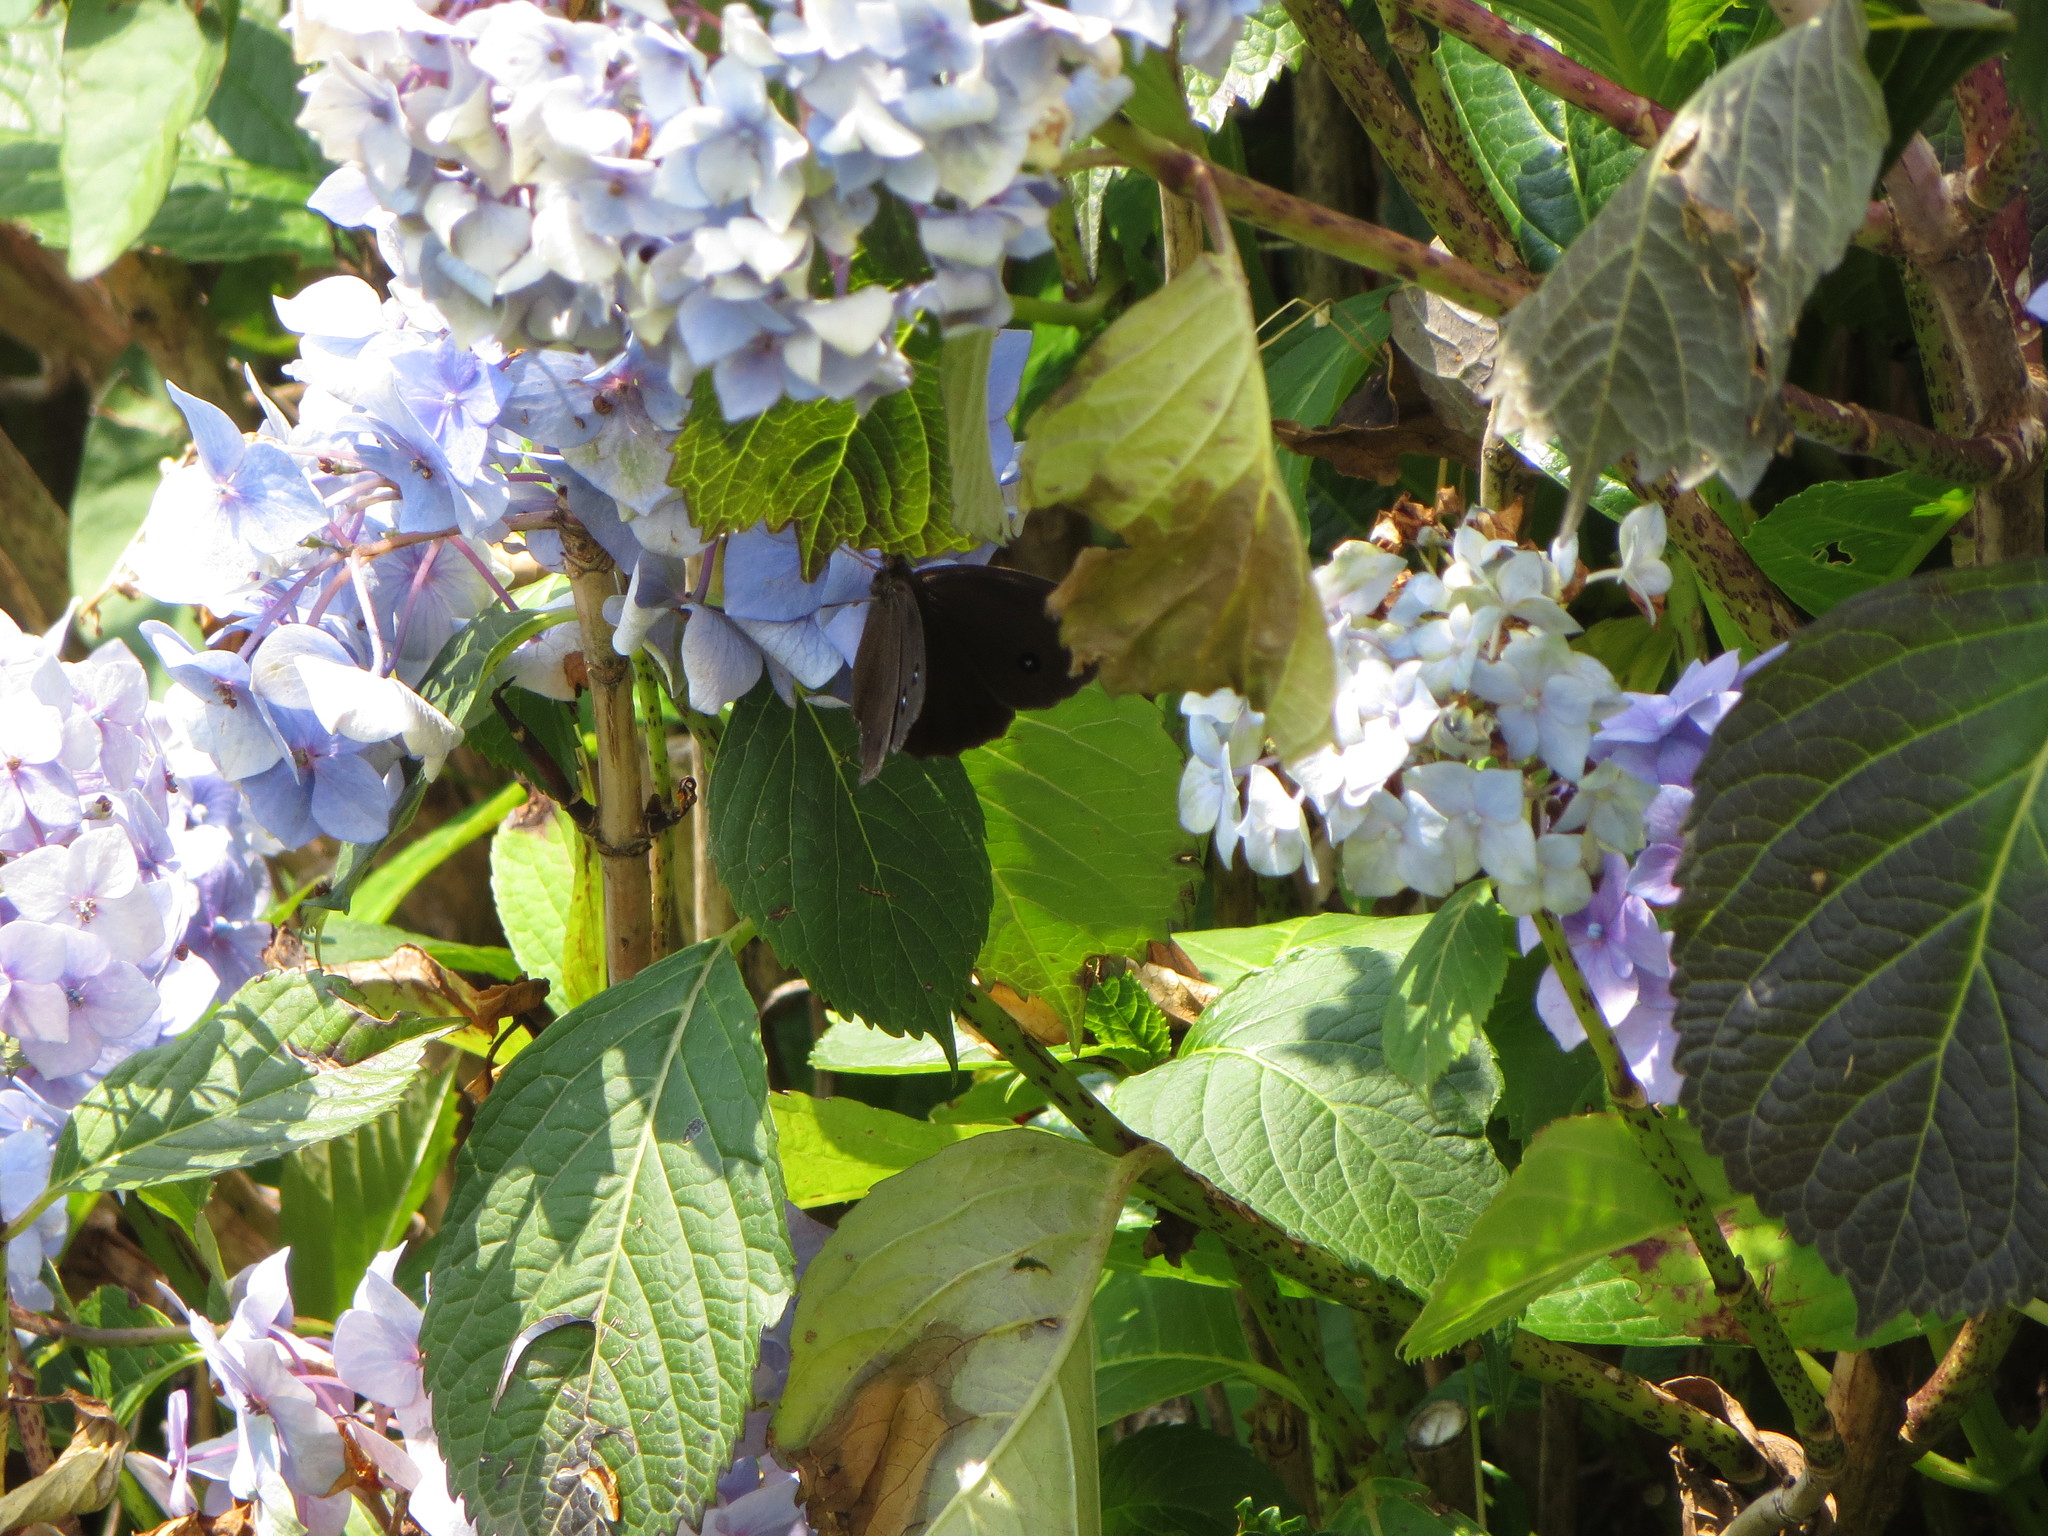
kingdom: Animalia
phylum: Arthropoda
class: Insecta
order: Lepidoptera
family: Nymphalidae
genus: Minois
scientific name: Minois dryas
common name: Dryad
